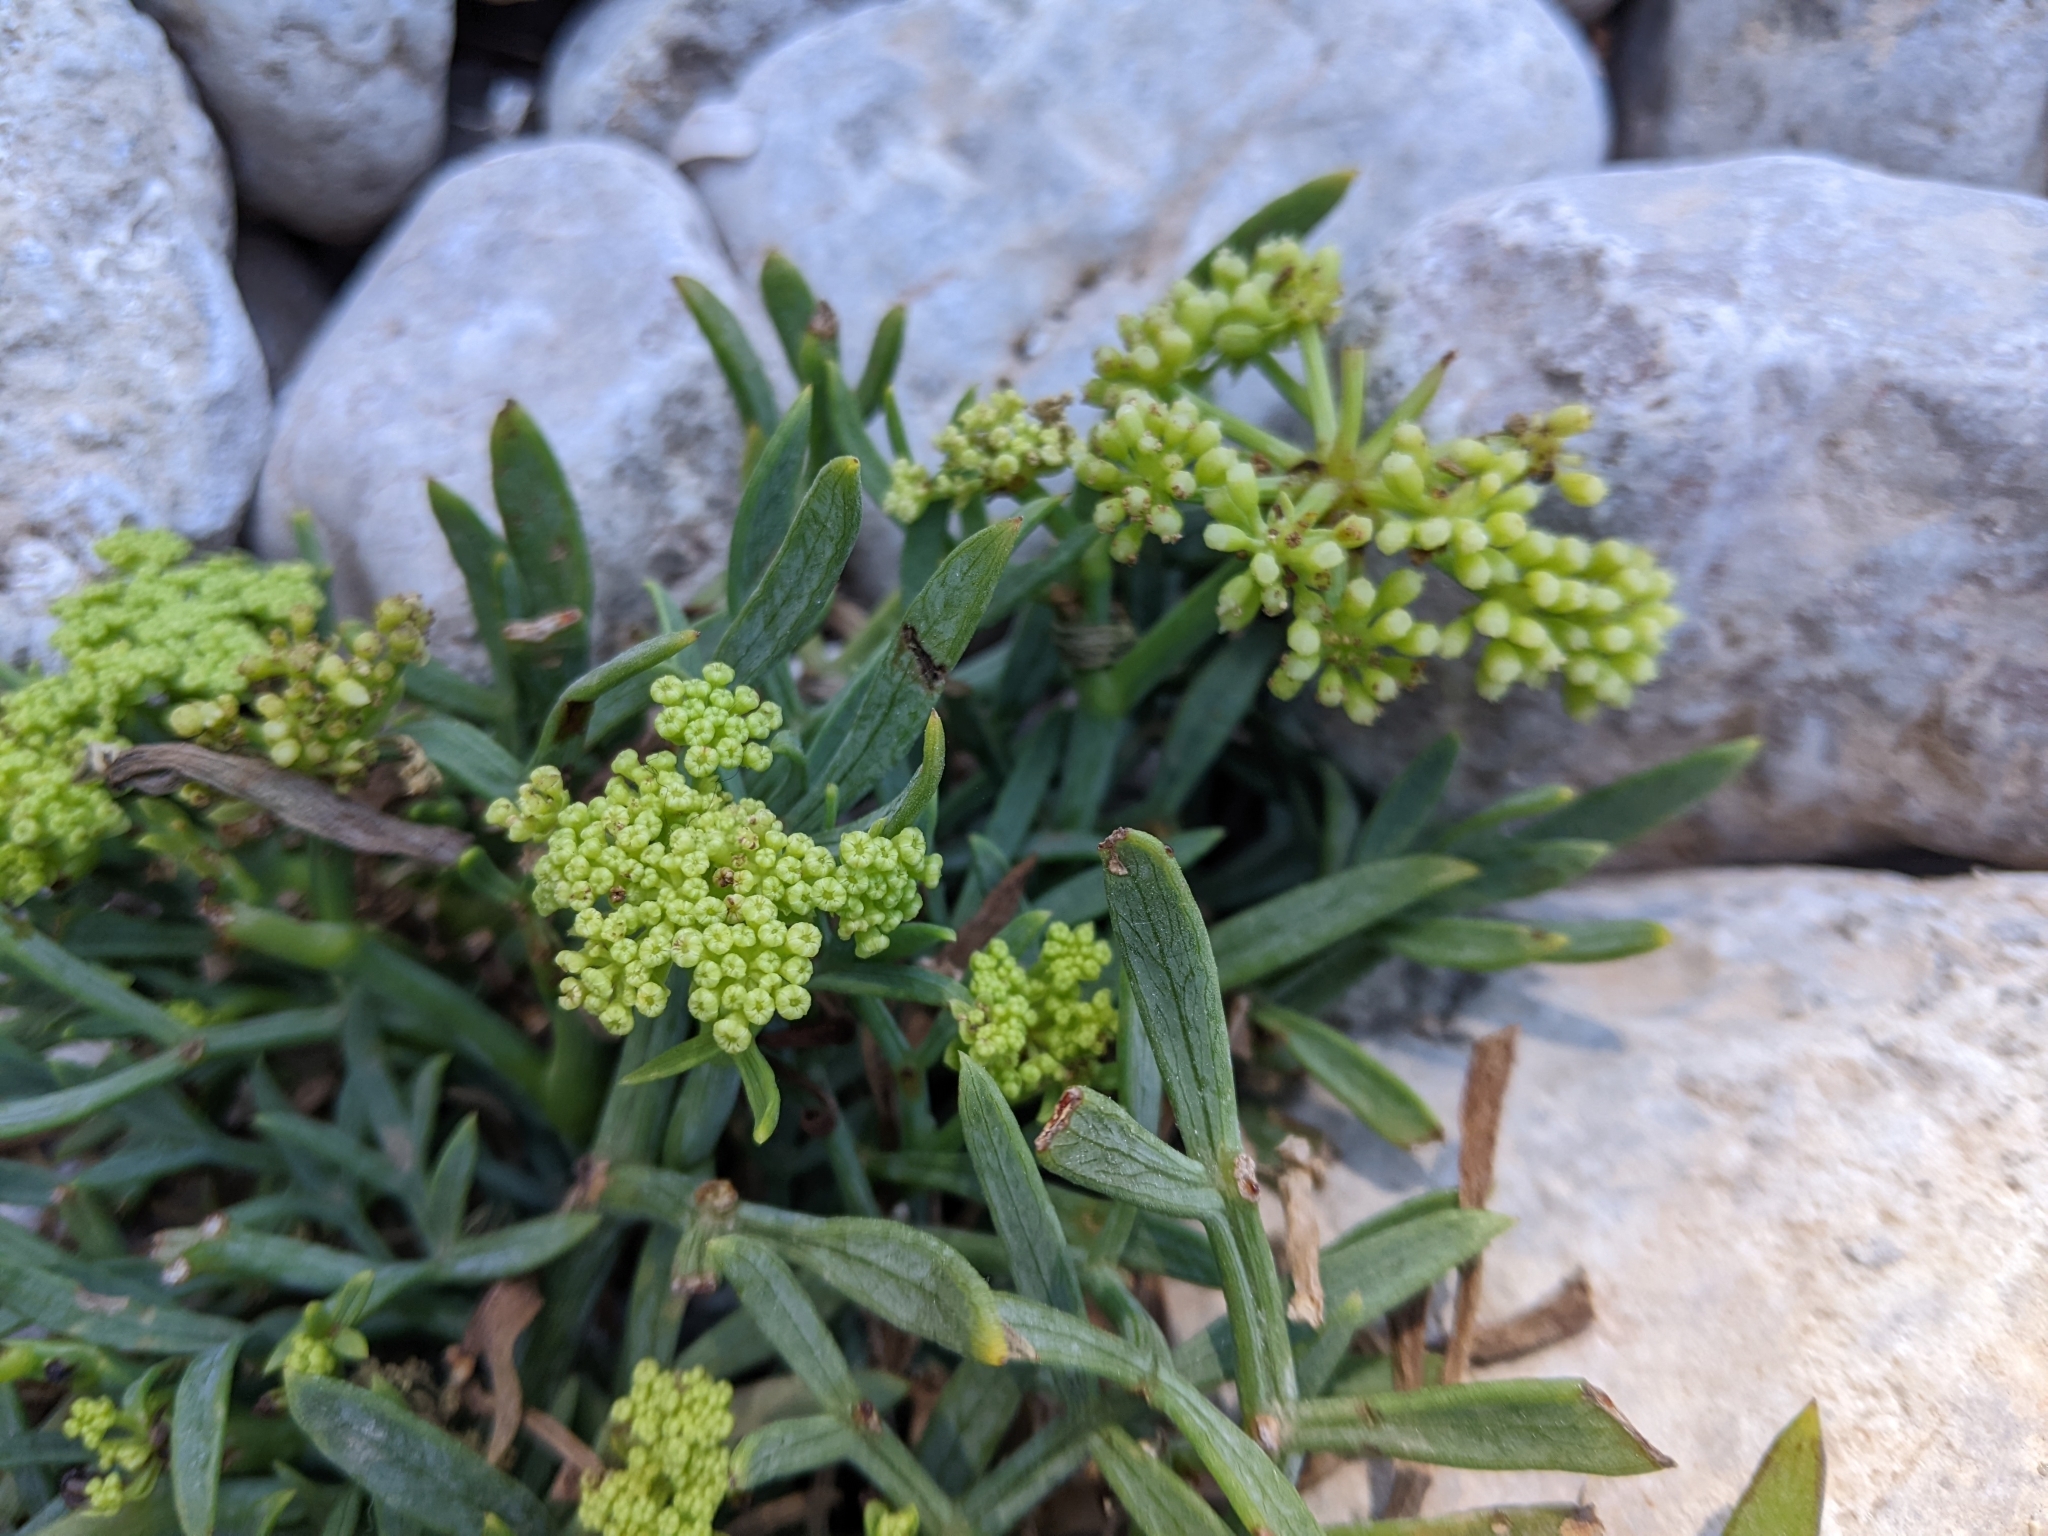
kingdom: Plantae
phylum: Tracheophyta
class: Magnoliopsida
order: Apiales
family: Apiaceae
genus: Crithmum
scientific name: Crithmum maritimum
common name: Rock samphire
